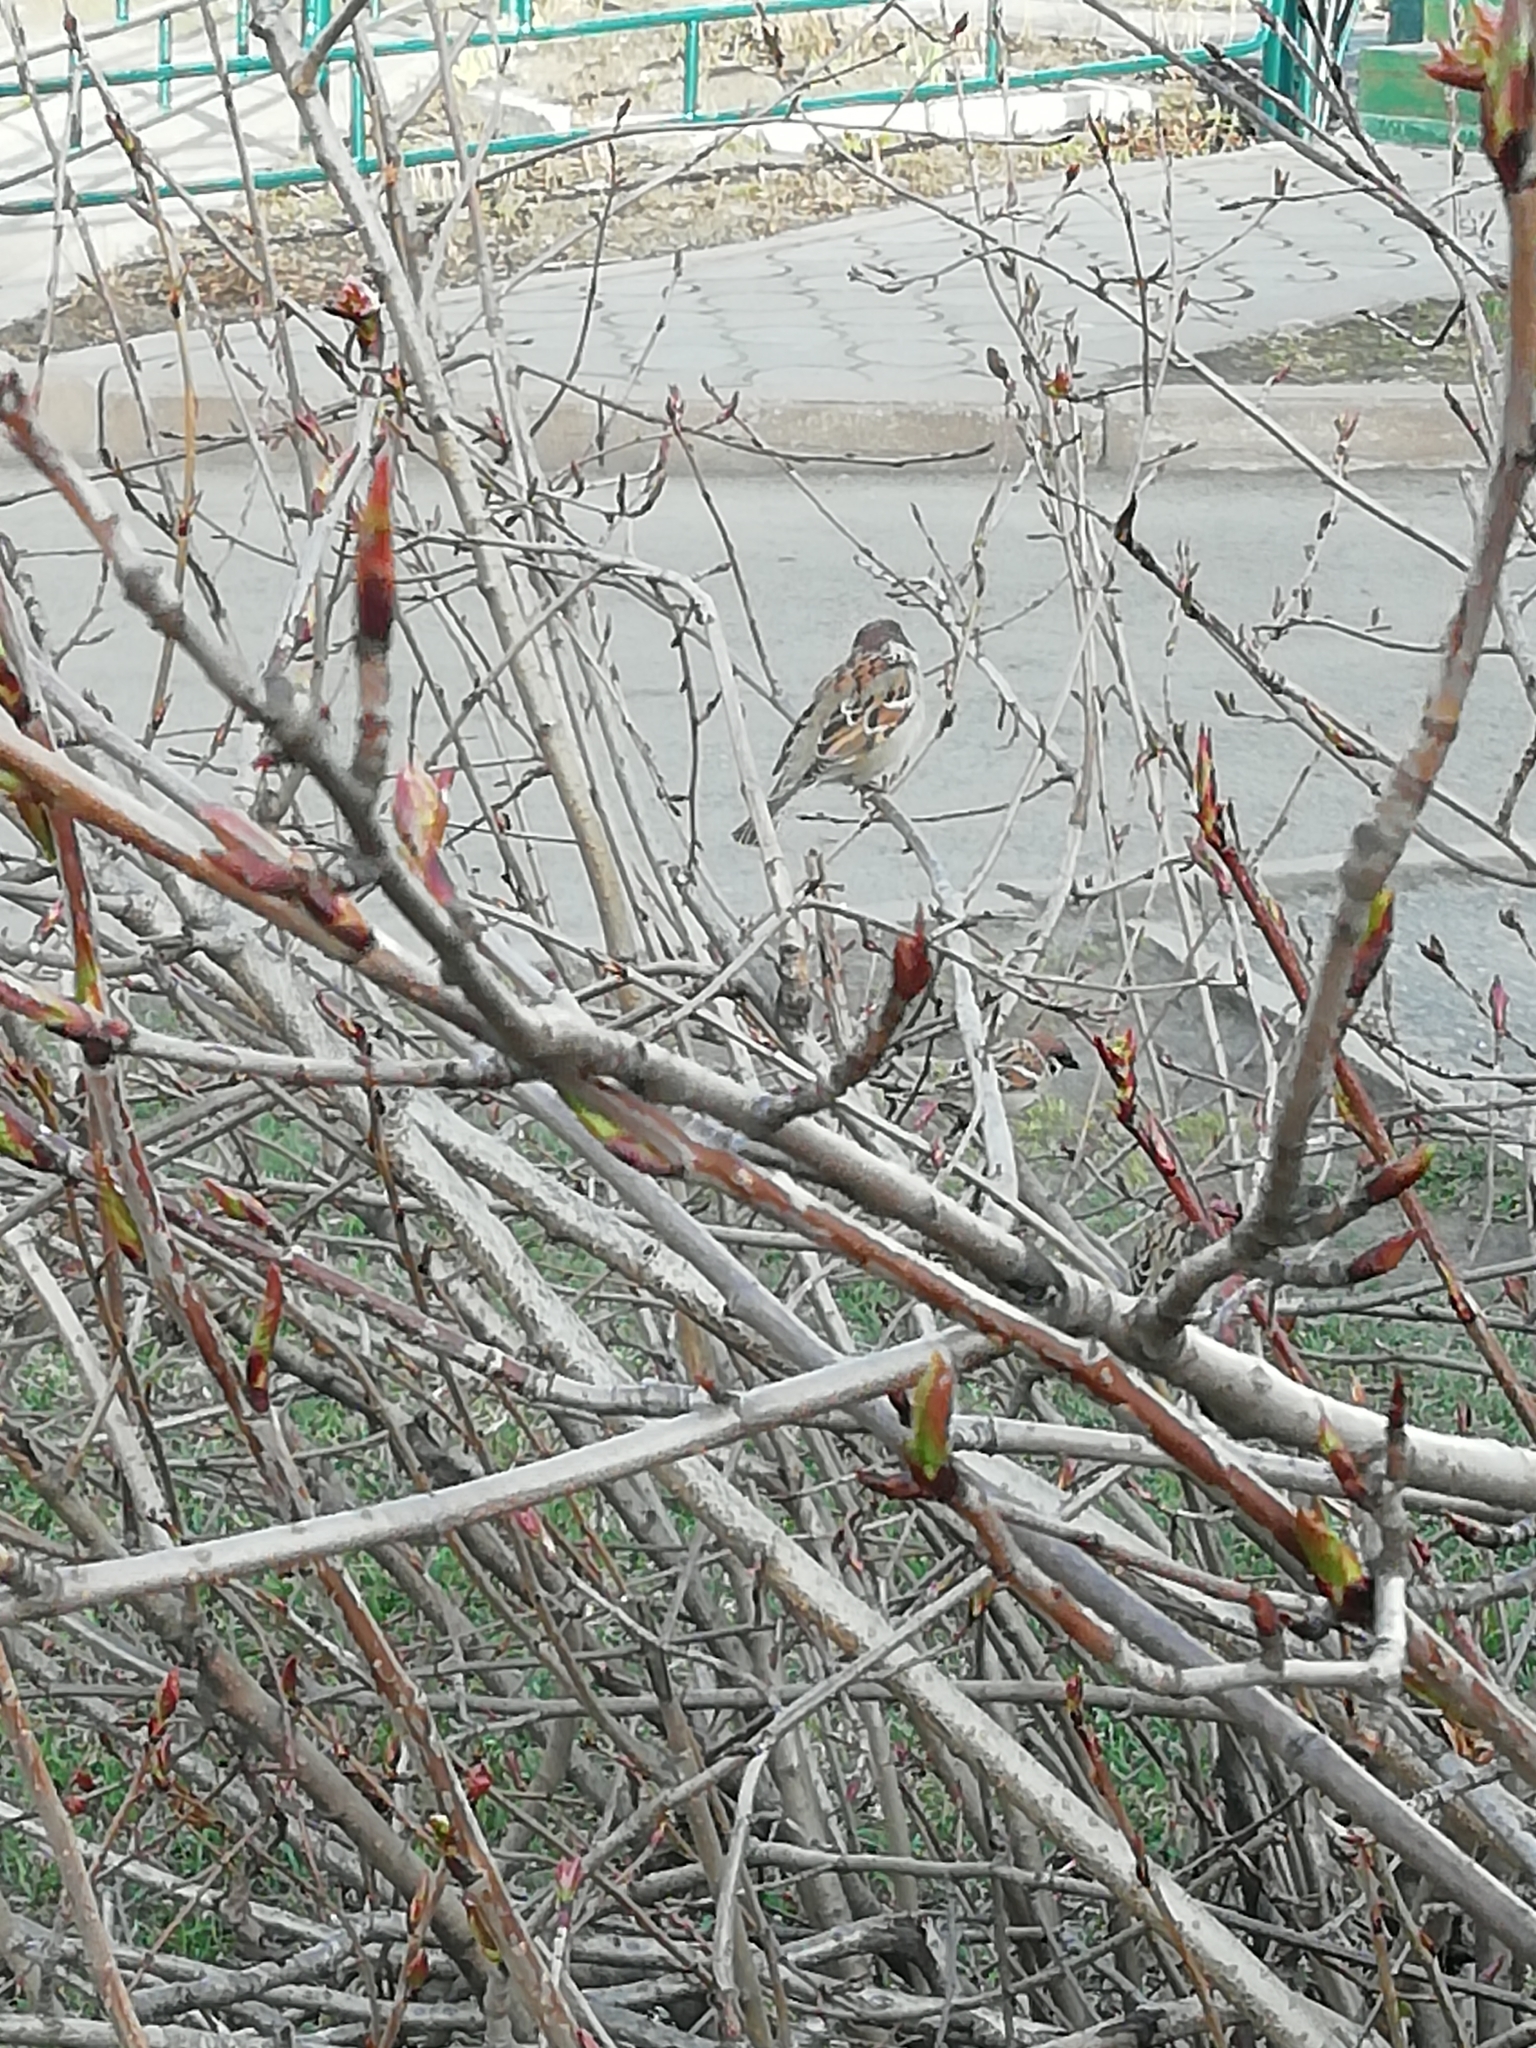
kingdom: Animalia
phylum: Chordata
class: Aves
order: Passeriformes
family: Passeridae
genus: Passer
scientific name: Passer montanus
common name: Eurasian tree sparrow
